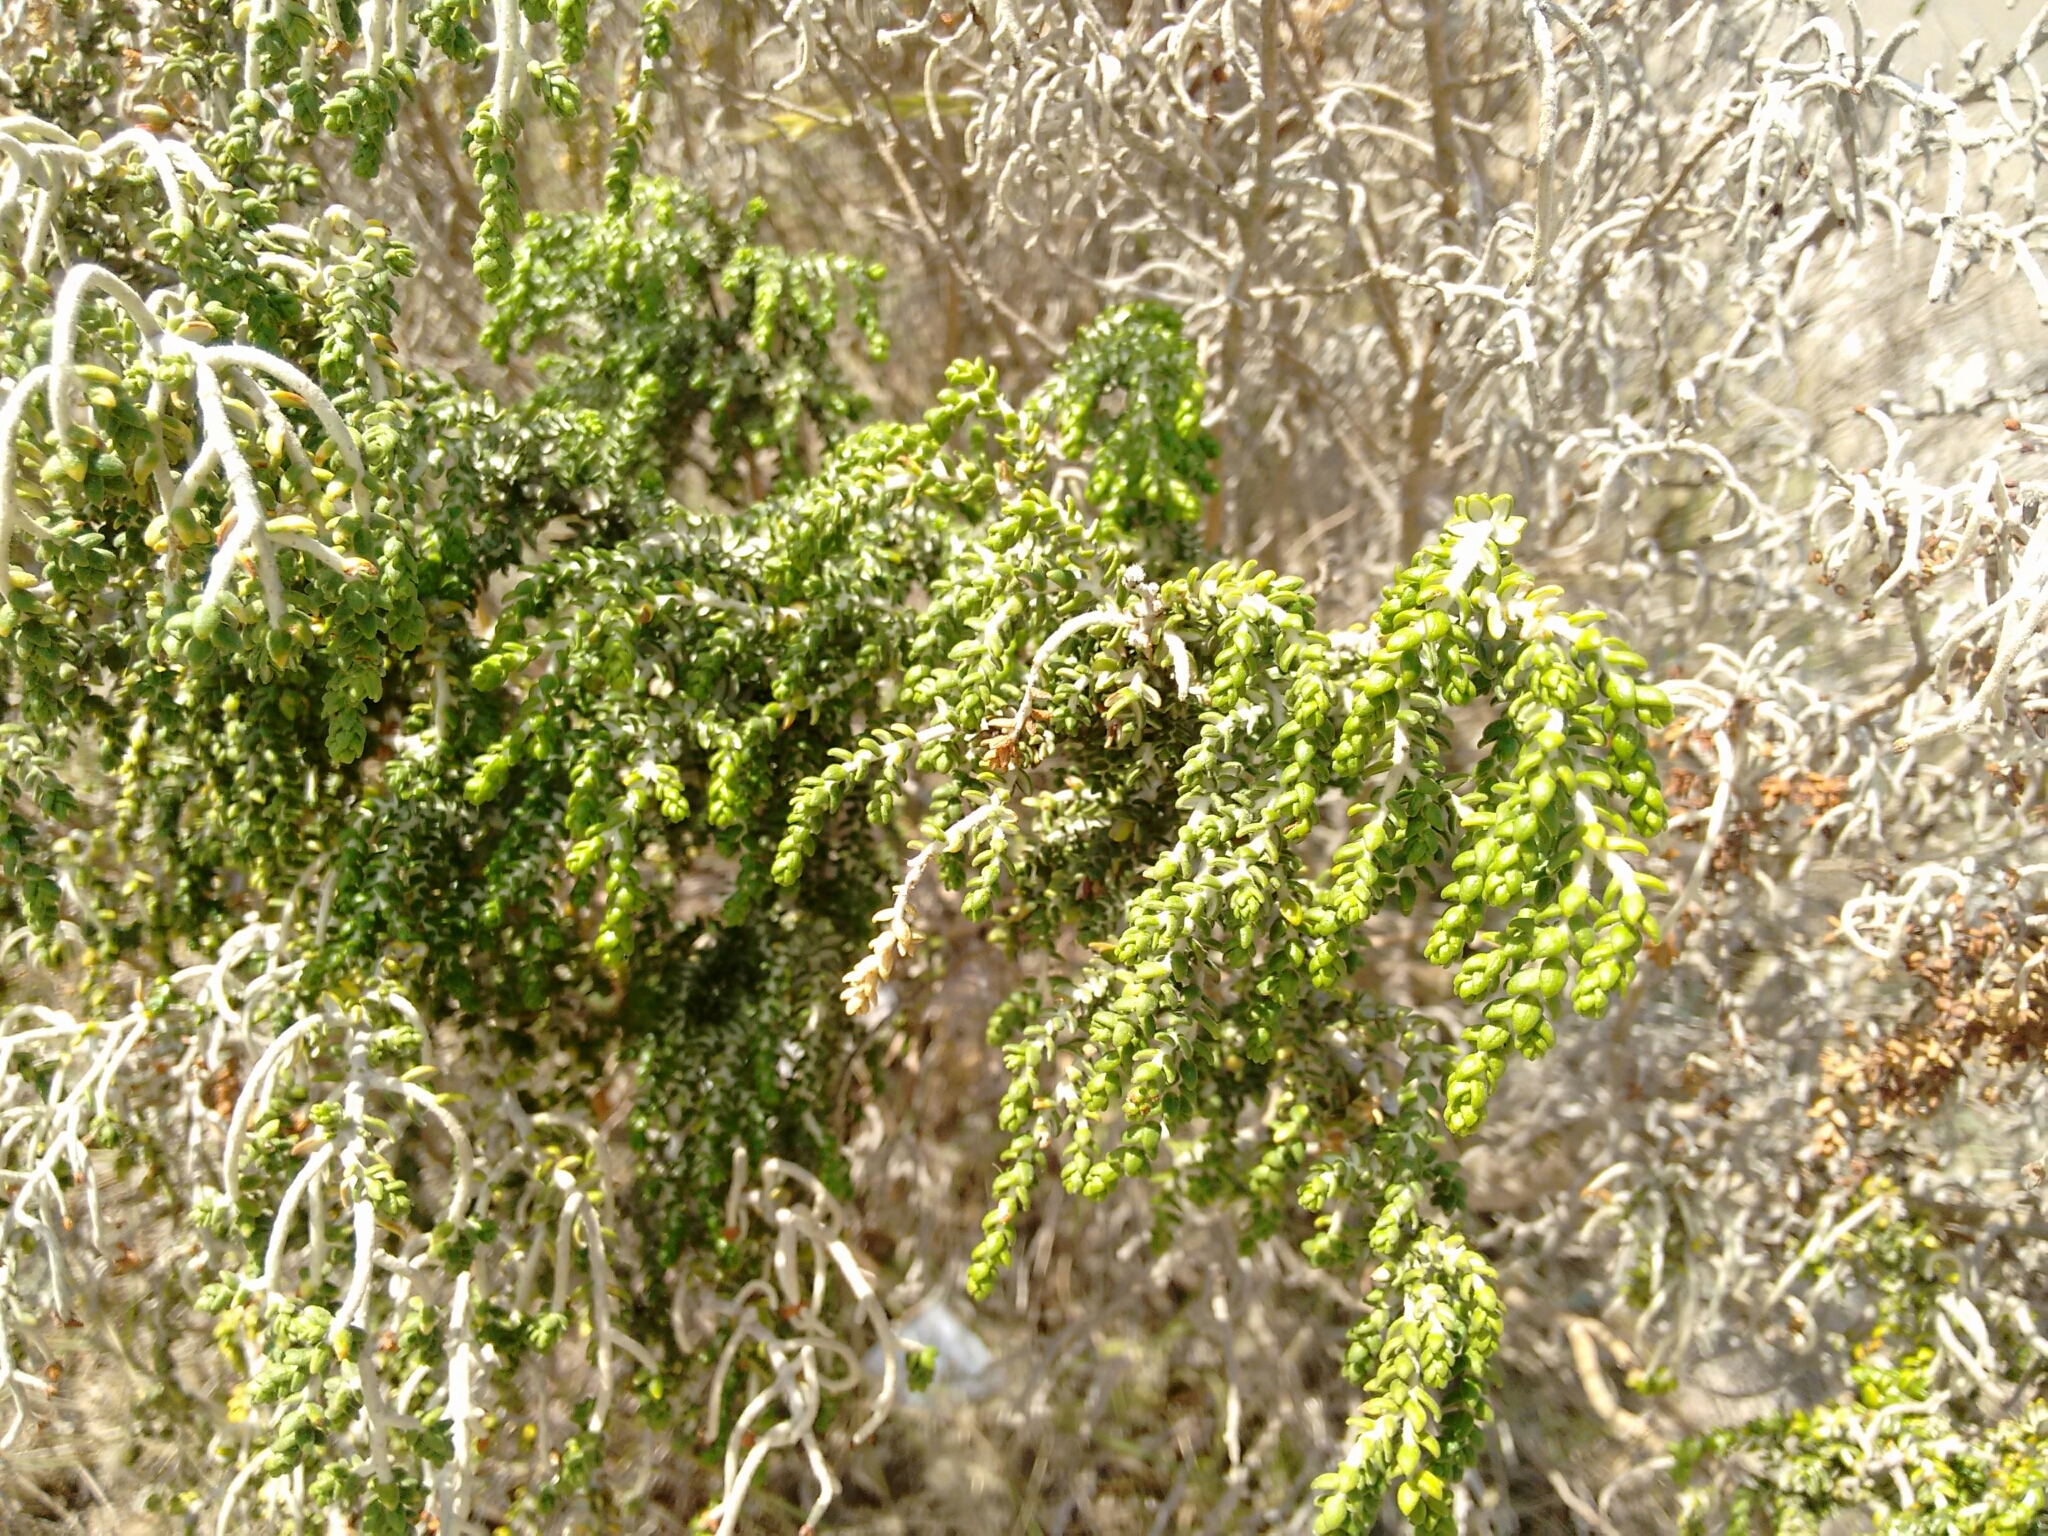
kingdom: Plantae
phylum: Tracheophyta
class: Magnoliopsida
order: Malvales
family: Thymelaeaceae
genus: Thymelaea
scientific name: Thymelaea hirsuta
